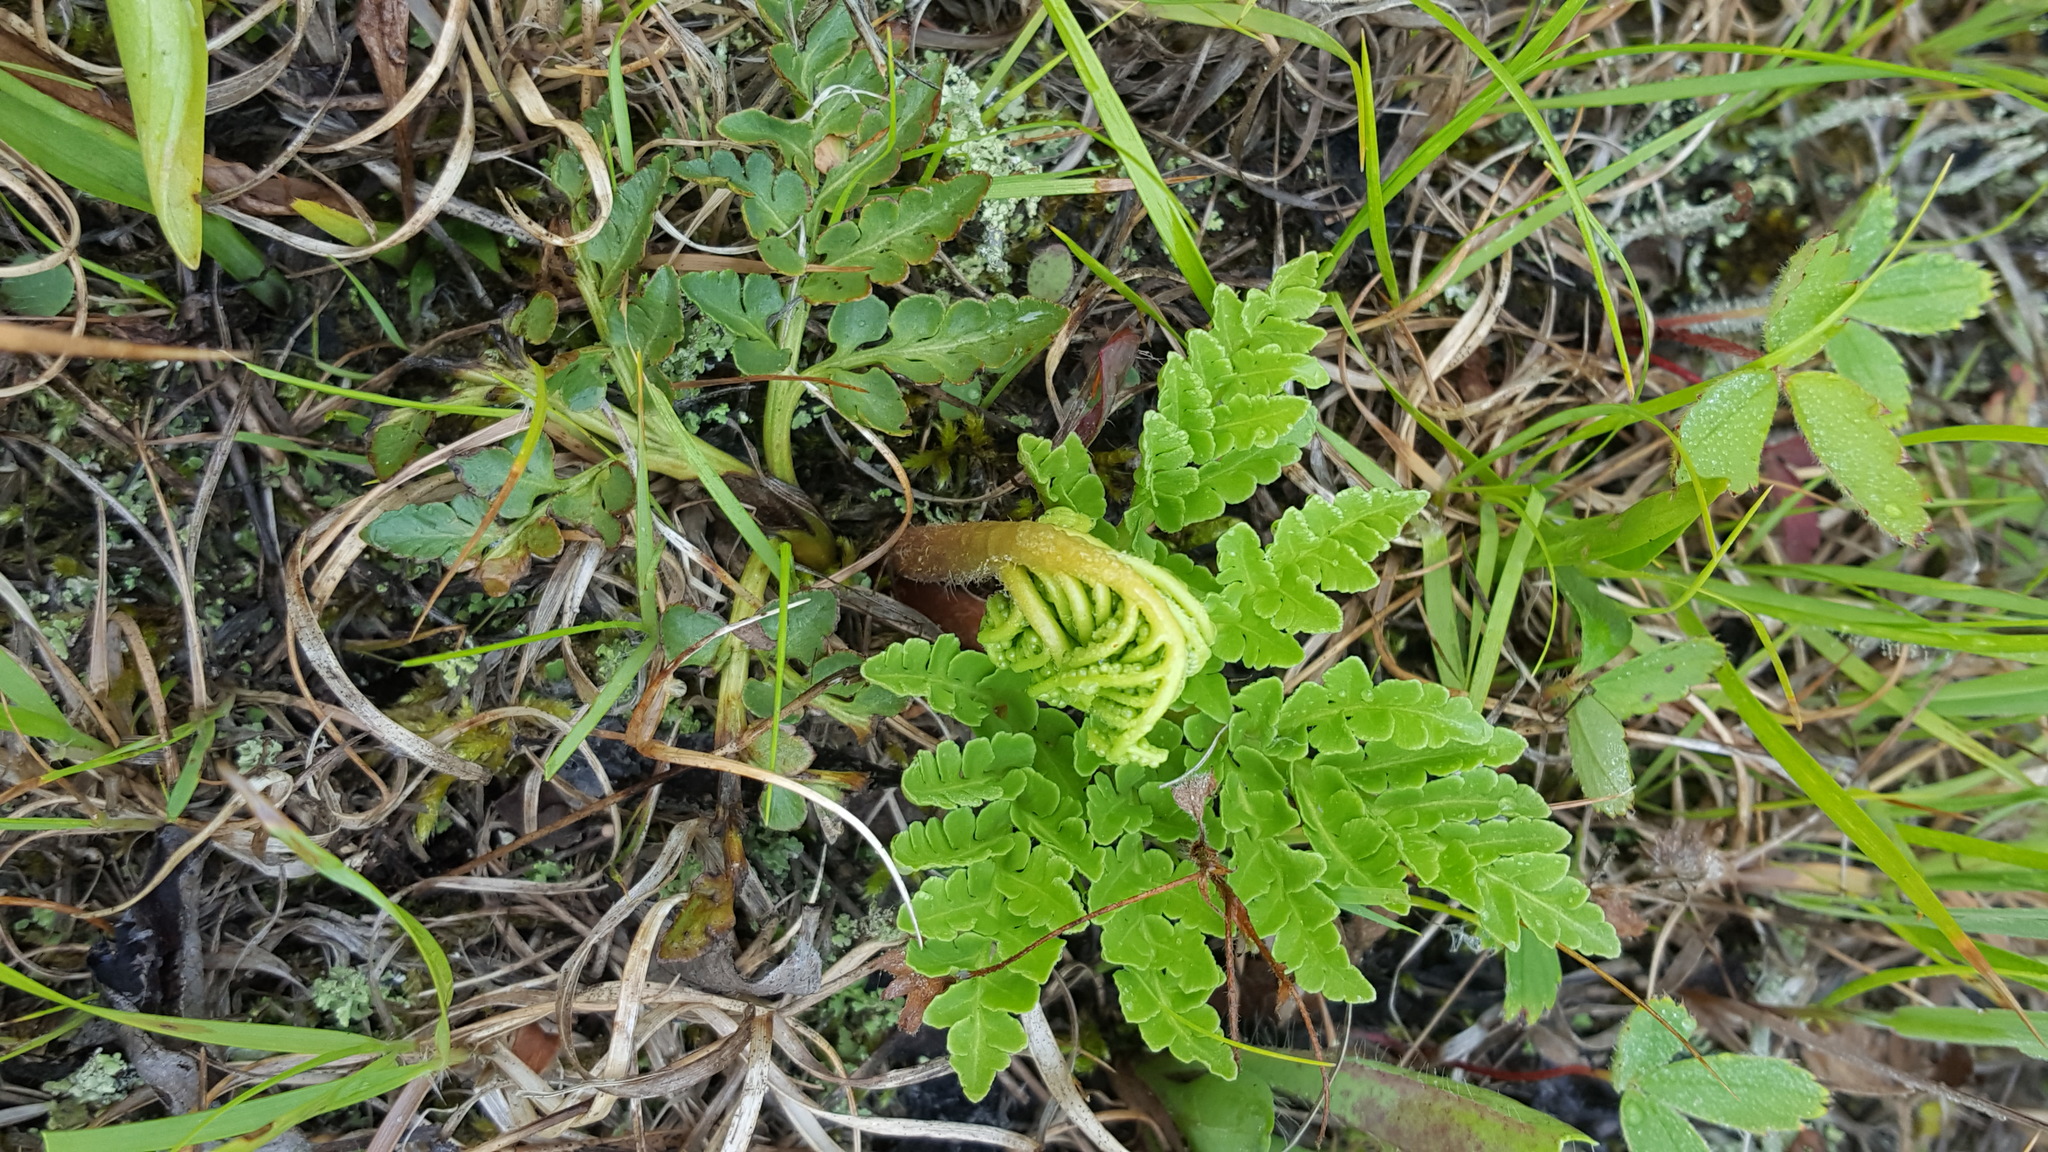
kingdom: Plantae
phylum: Tracheophyta
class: Polypodiopsida
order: Ophioglossales
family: Ophioglossaceae
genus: Sceptridium
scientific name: Sceptridium multifidum
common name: Leathery grape fern
